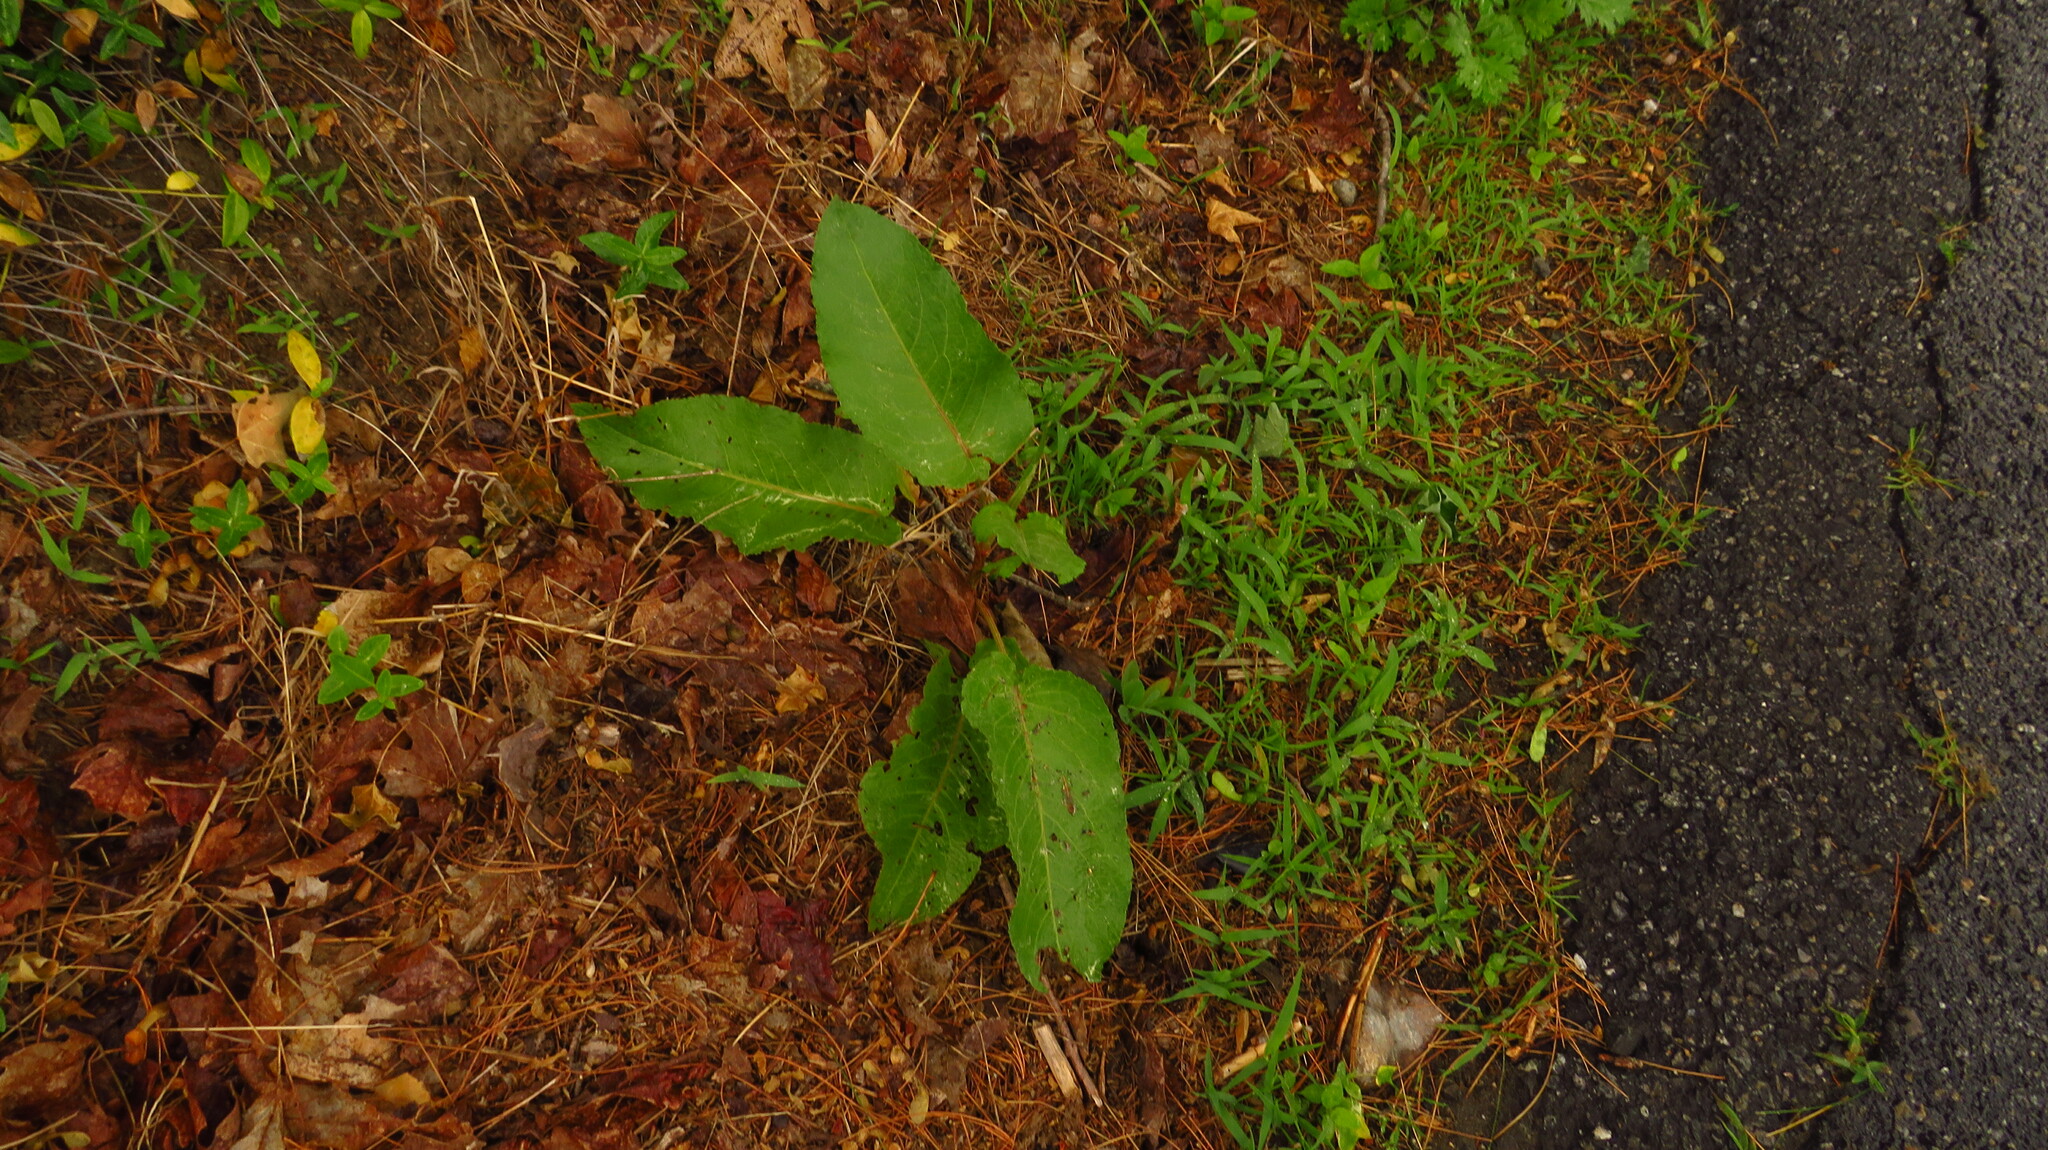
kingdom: Plantae
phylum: Tracheophyta
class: Magnoliopsida
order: Caryophyllales
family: Polygonaceae
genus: Rumex
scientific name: Rumex obtusifolius
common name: Bitter dock
